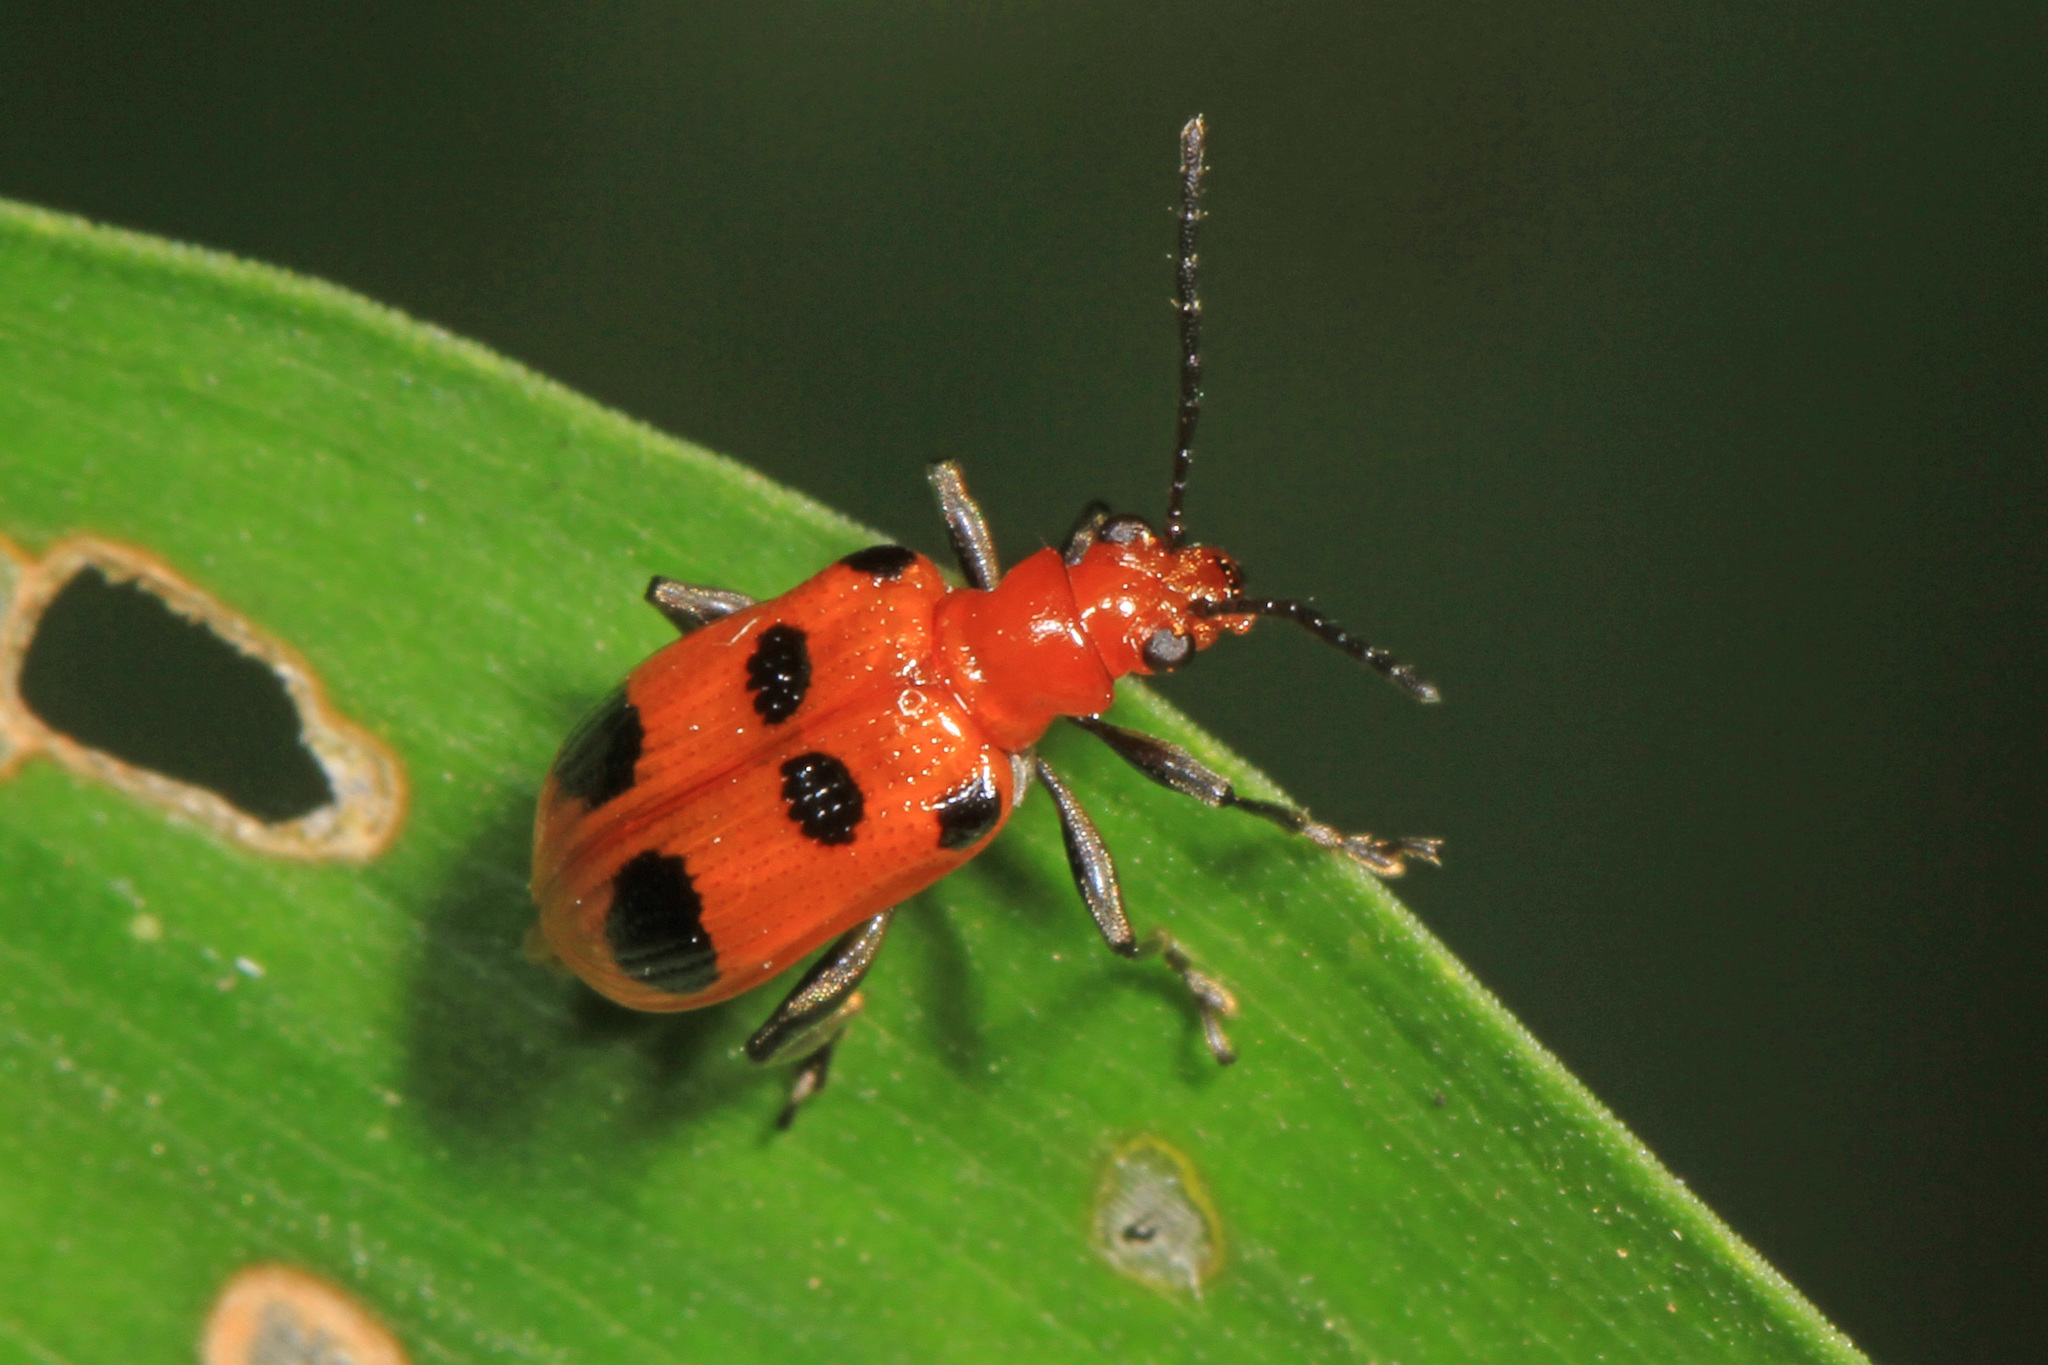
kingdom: Animalia
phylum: Arthropoda
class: Insecta
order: Coleoptera
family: Chrysomelidae
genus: Neolema
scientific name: Neolema sexpunctata
